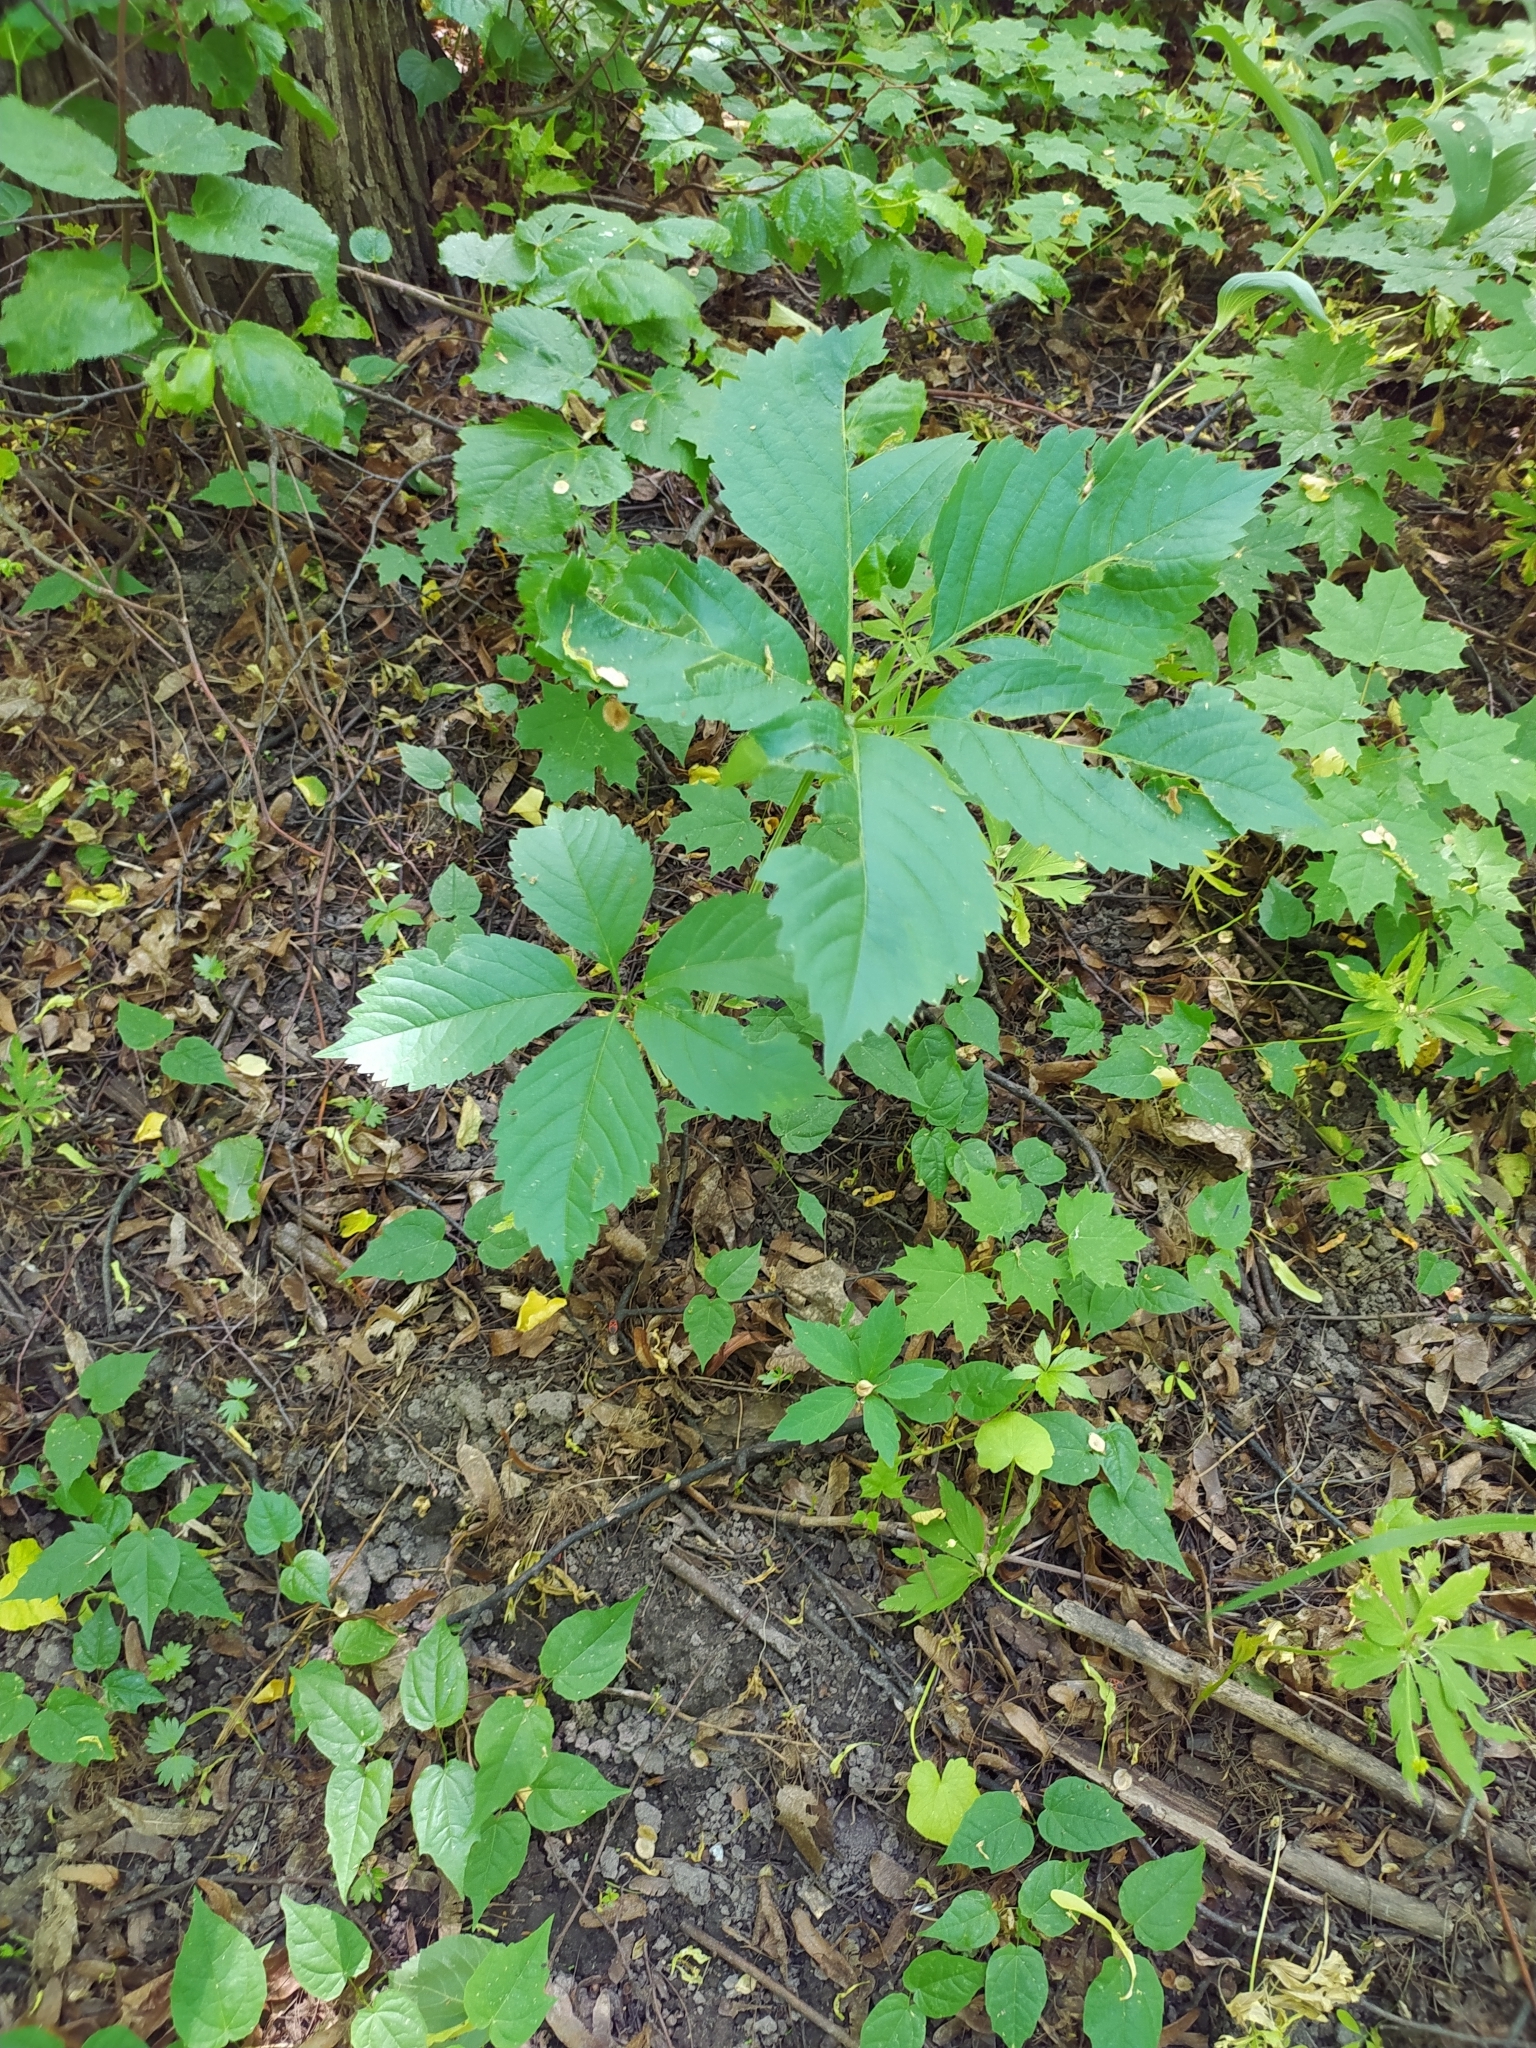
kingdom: Plantae
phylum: Tracheophyta
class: Magnoliopsida
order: Vitales
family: Vitaceae
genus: Parthenocissus
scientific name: Parthenocissus inserta
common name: False virginia-creeper
